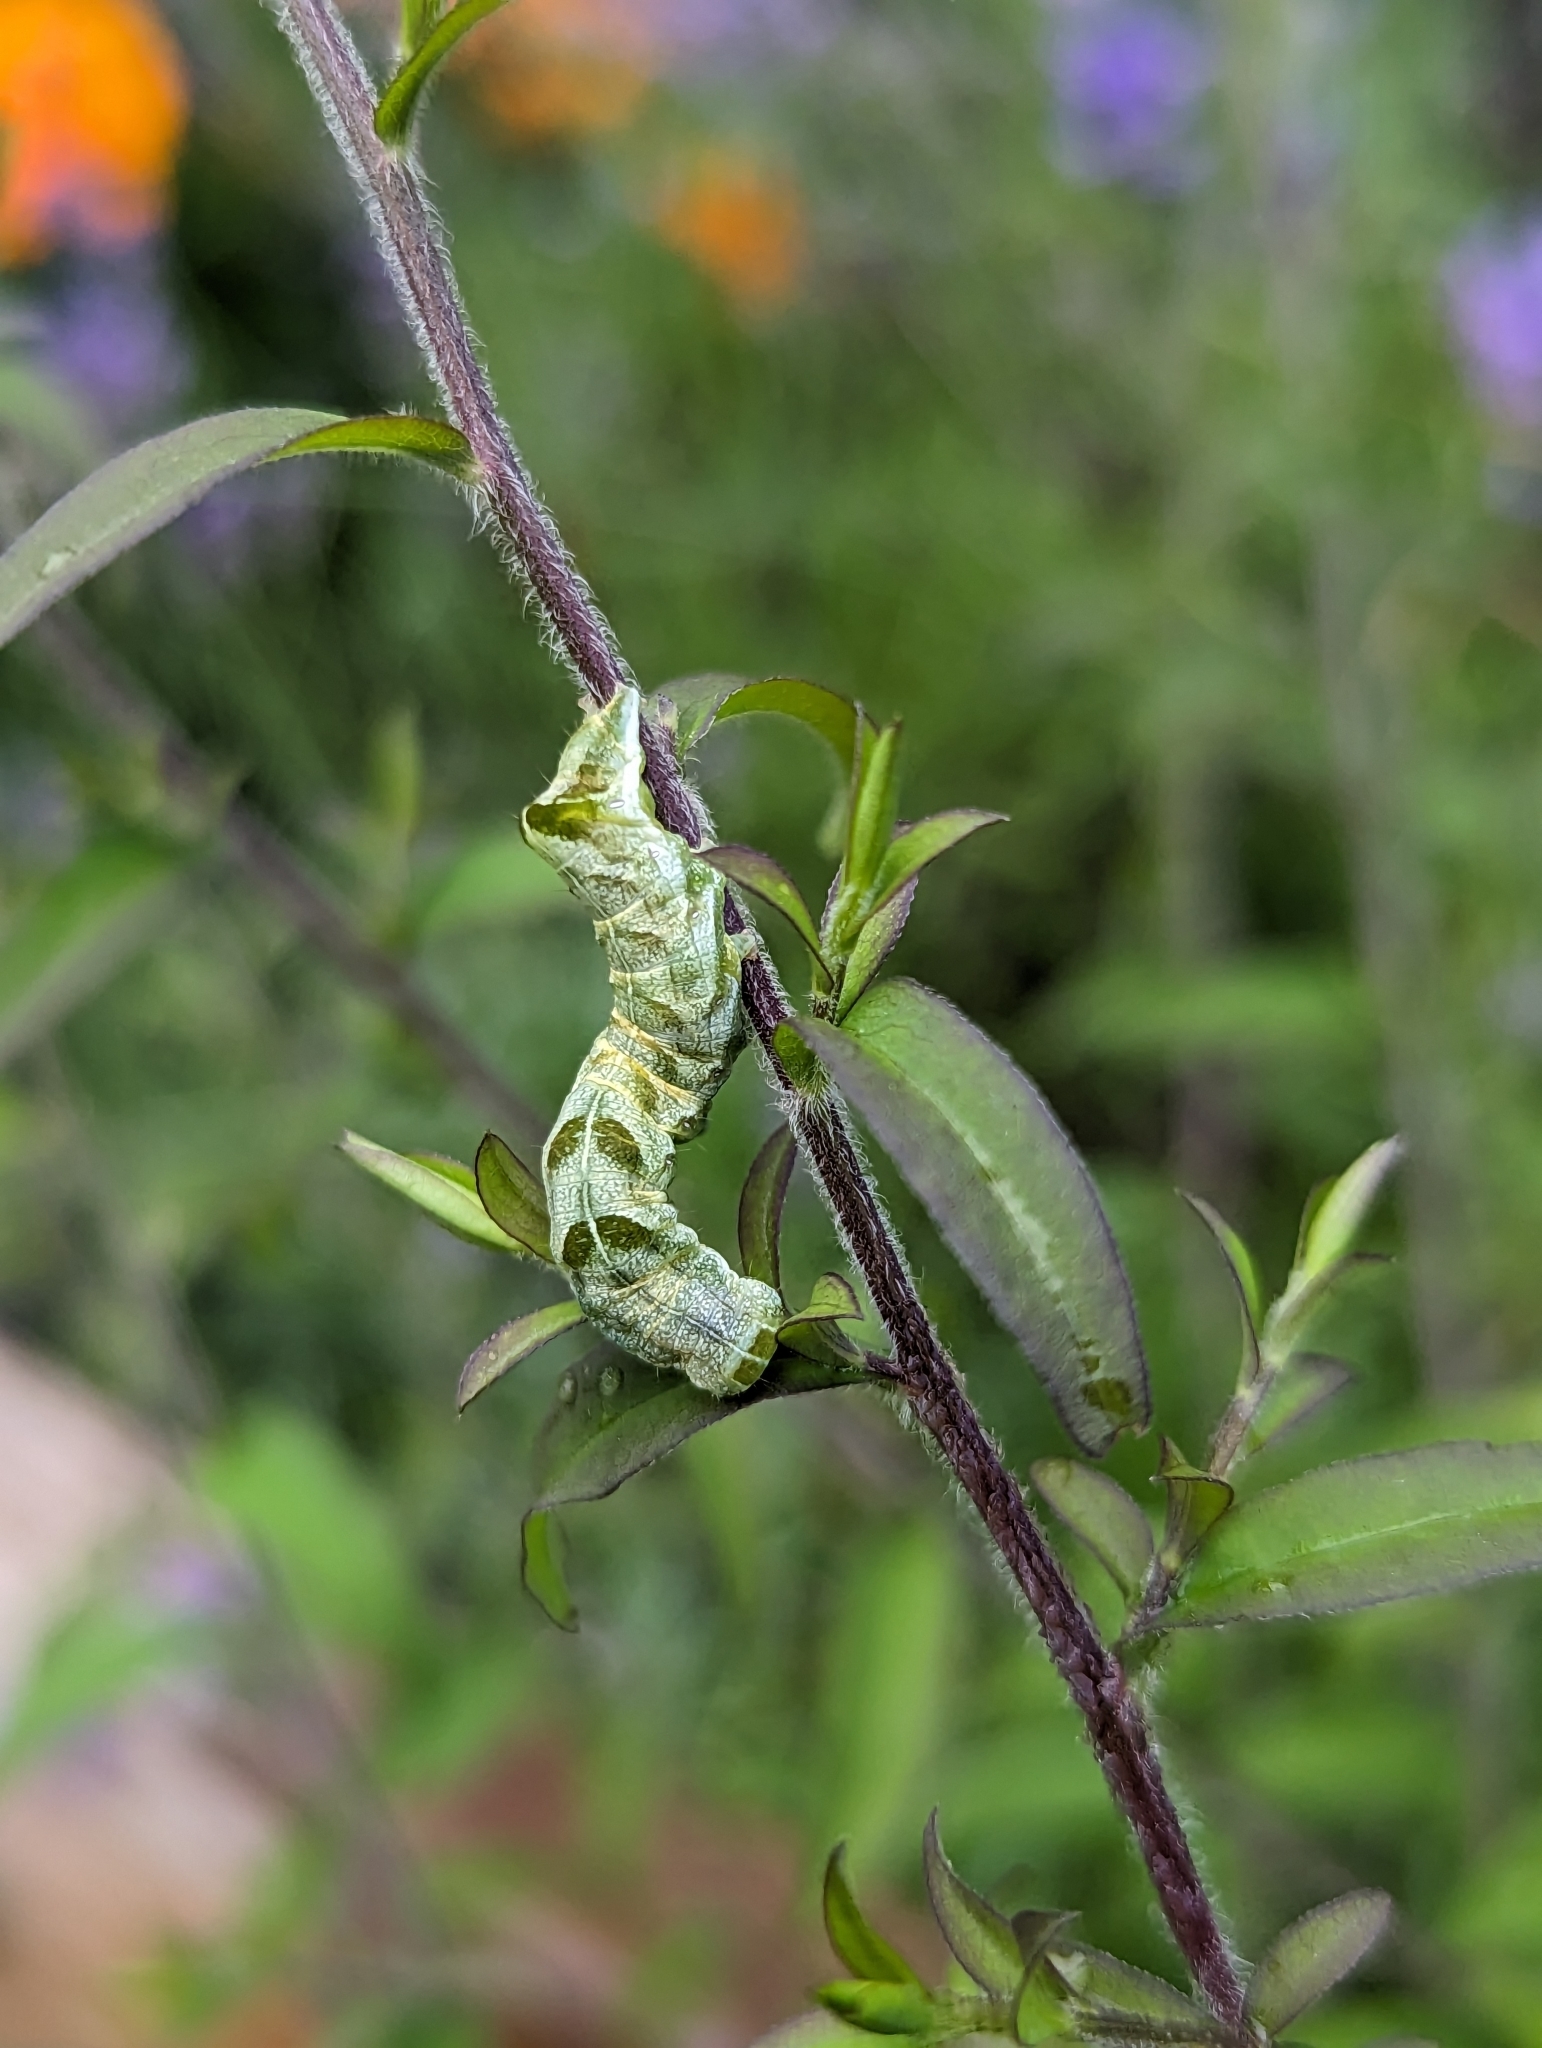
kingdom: Animalia
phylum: Arthropoda
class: Insecta
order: Lepidoptera
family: Noctuidae
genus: Melanchra
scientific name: Melanchra adjuncta
